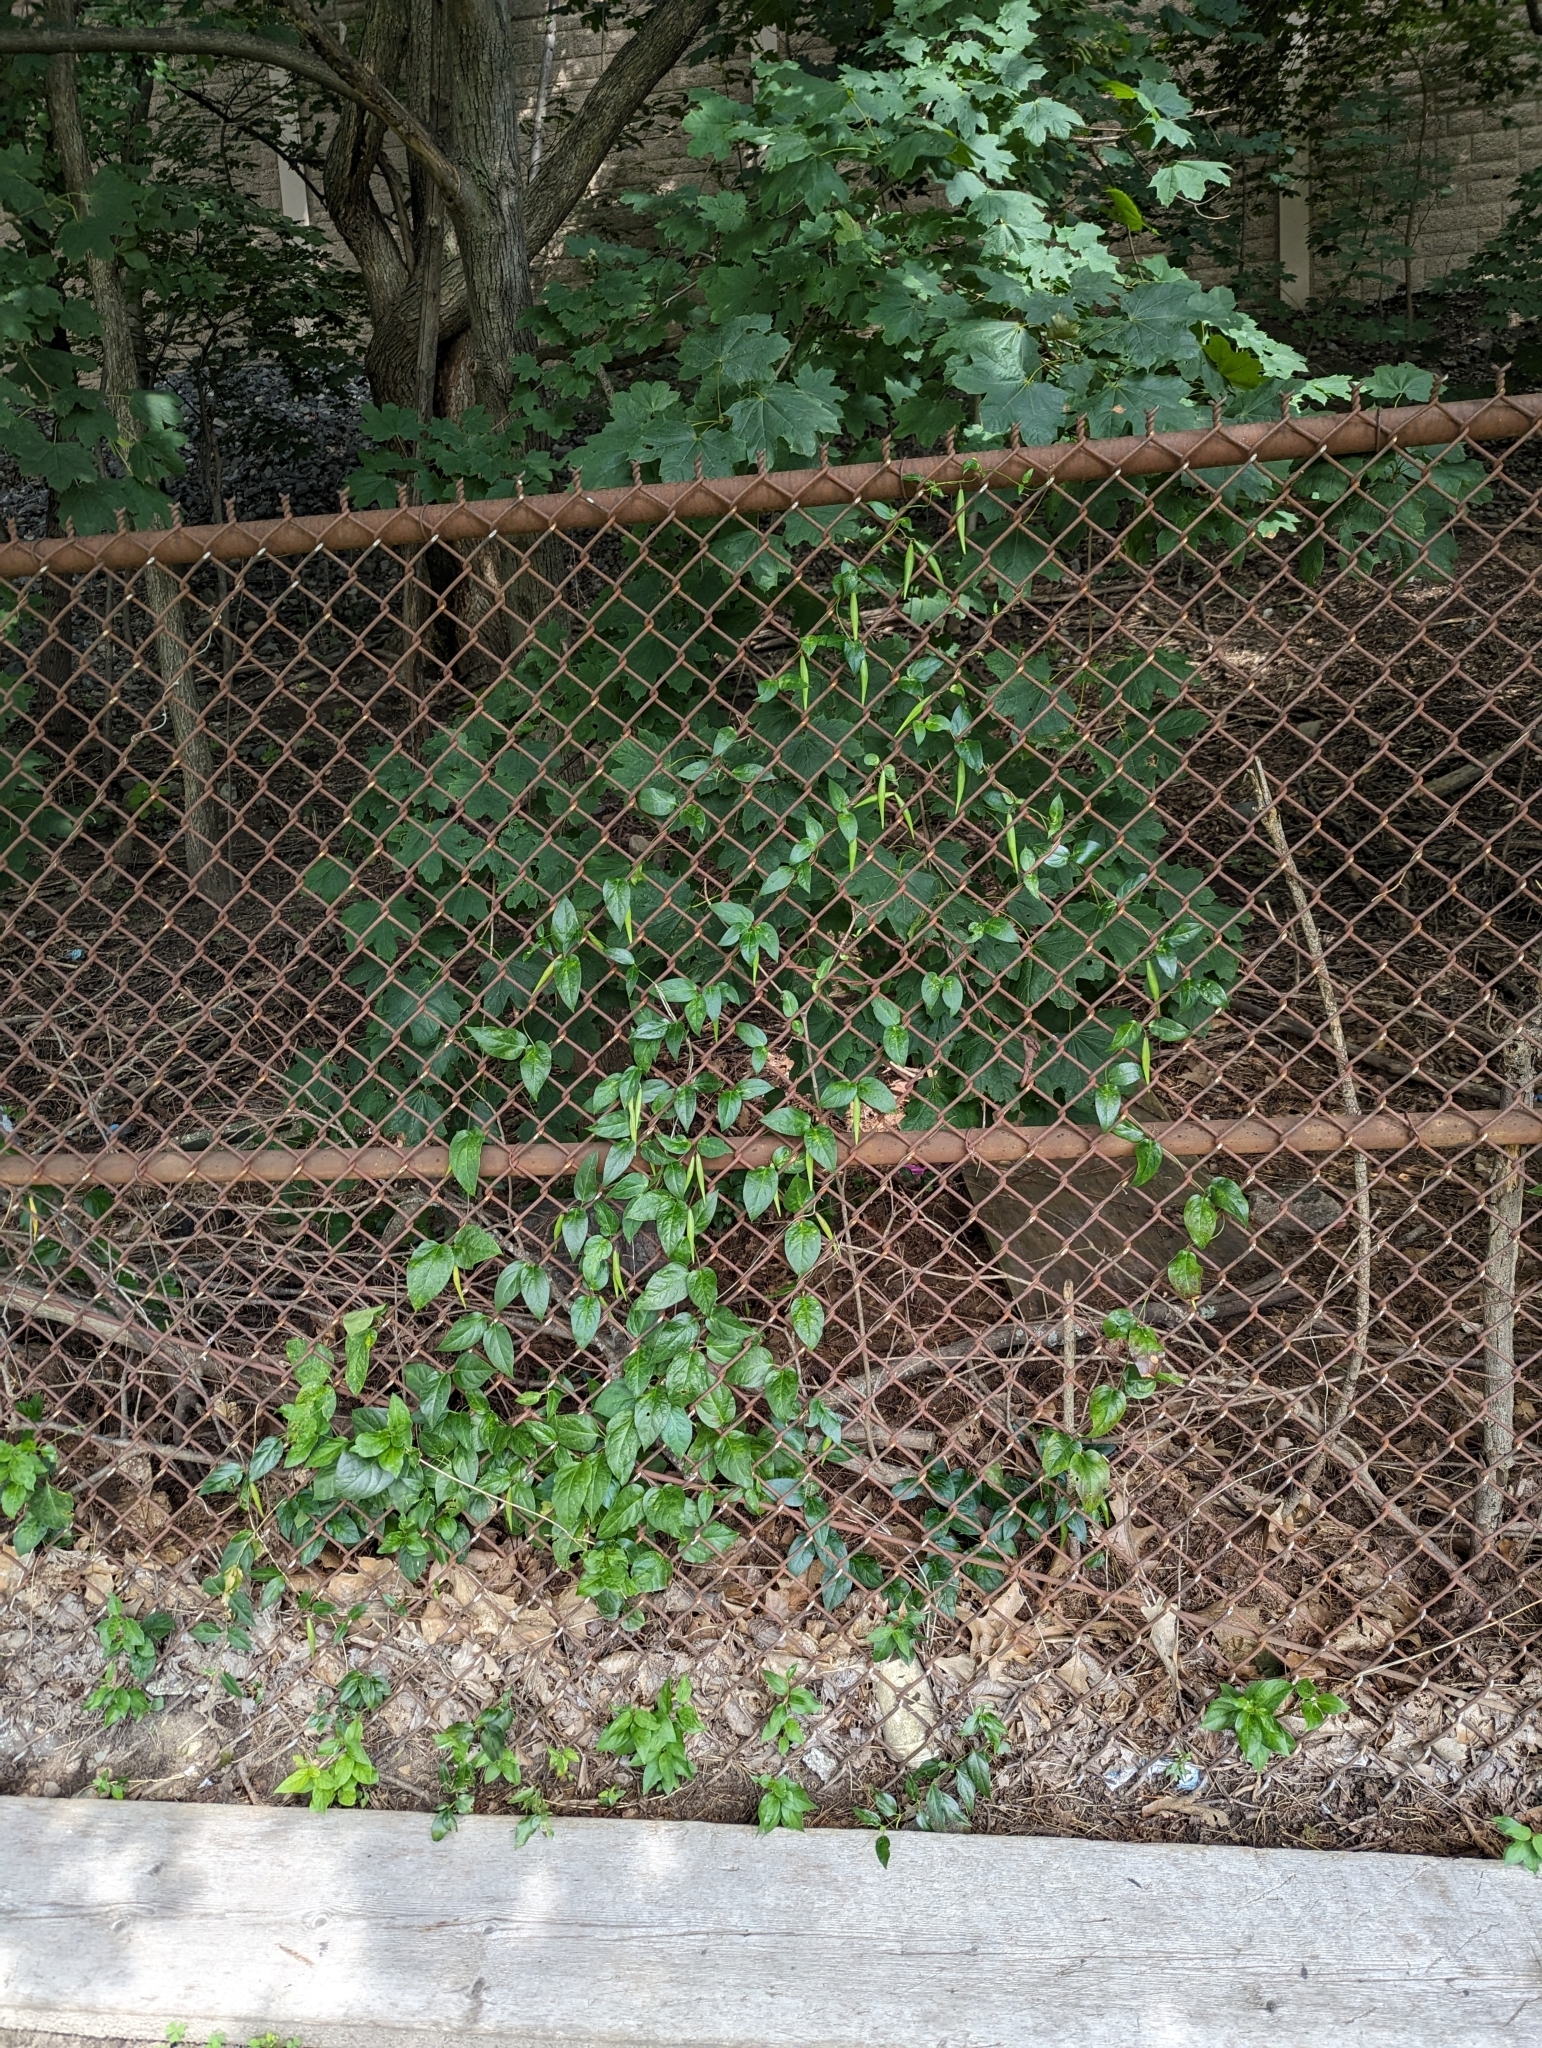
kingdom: Plantae
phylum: Tracheophyta
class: Magnoliopsida
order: Gentianales
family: Apocynaceae
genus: Vincetoxicum
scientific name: Vincetoxicum nigrum
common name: Black swallow-wort
